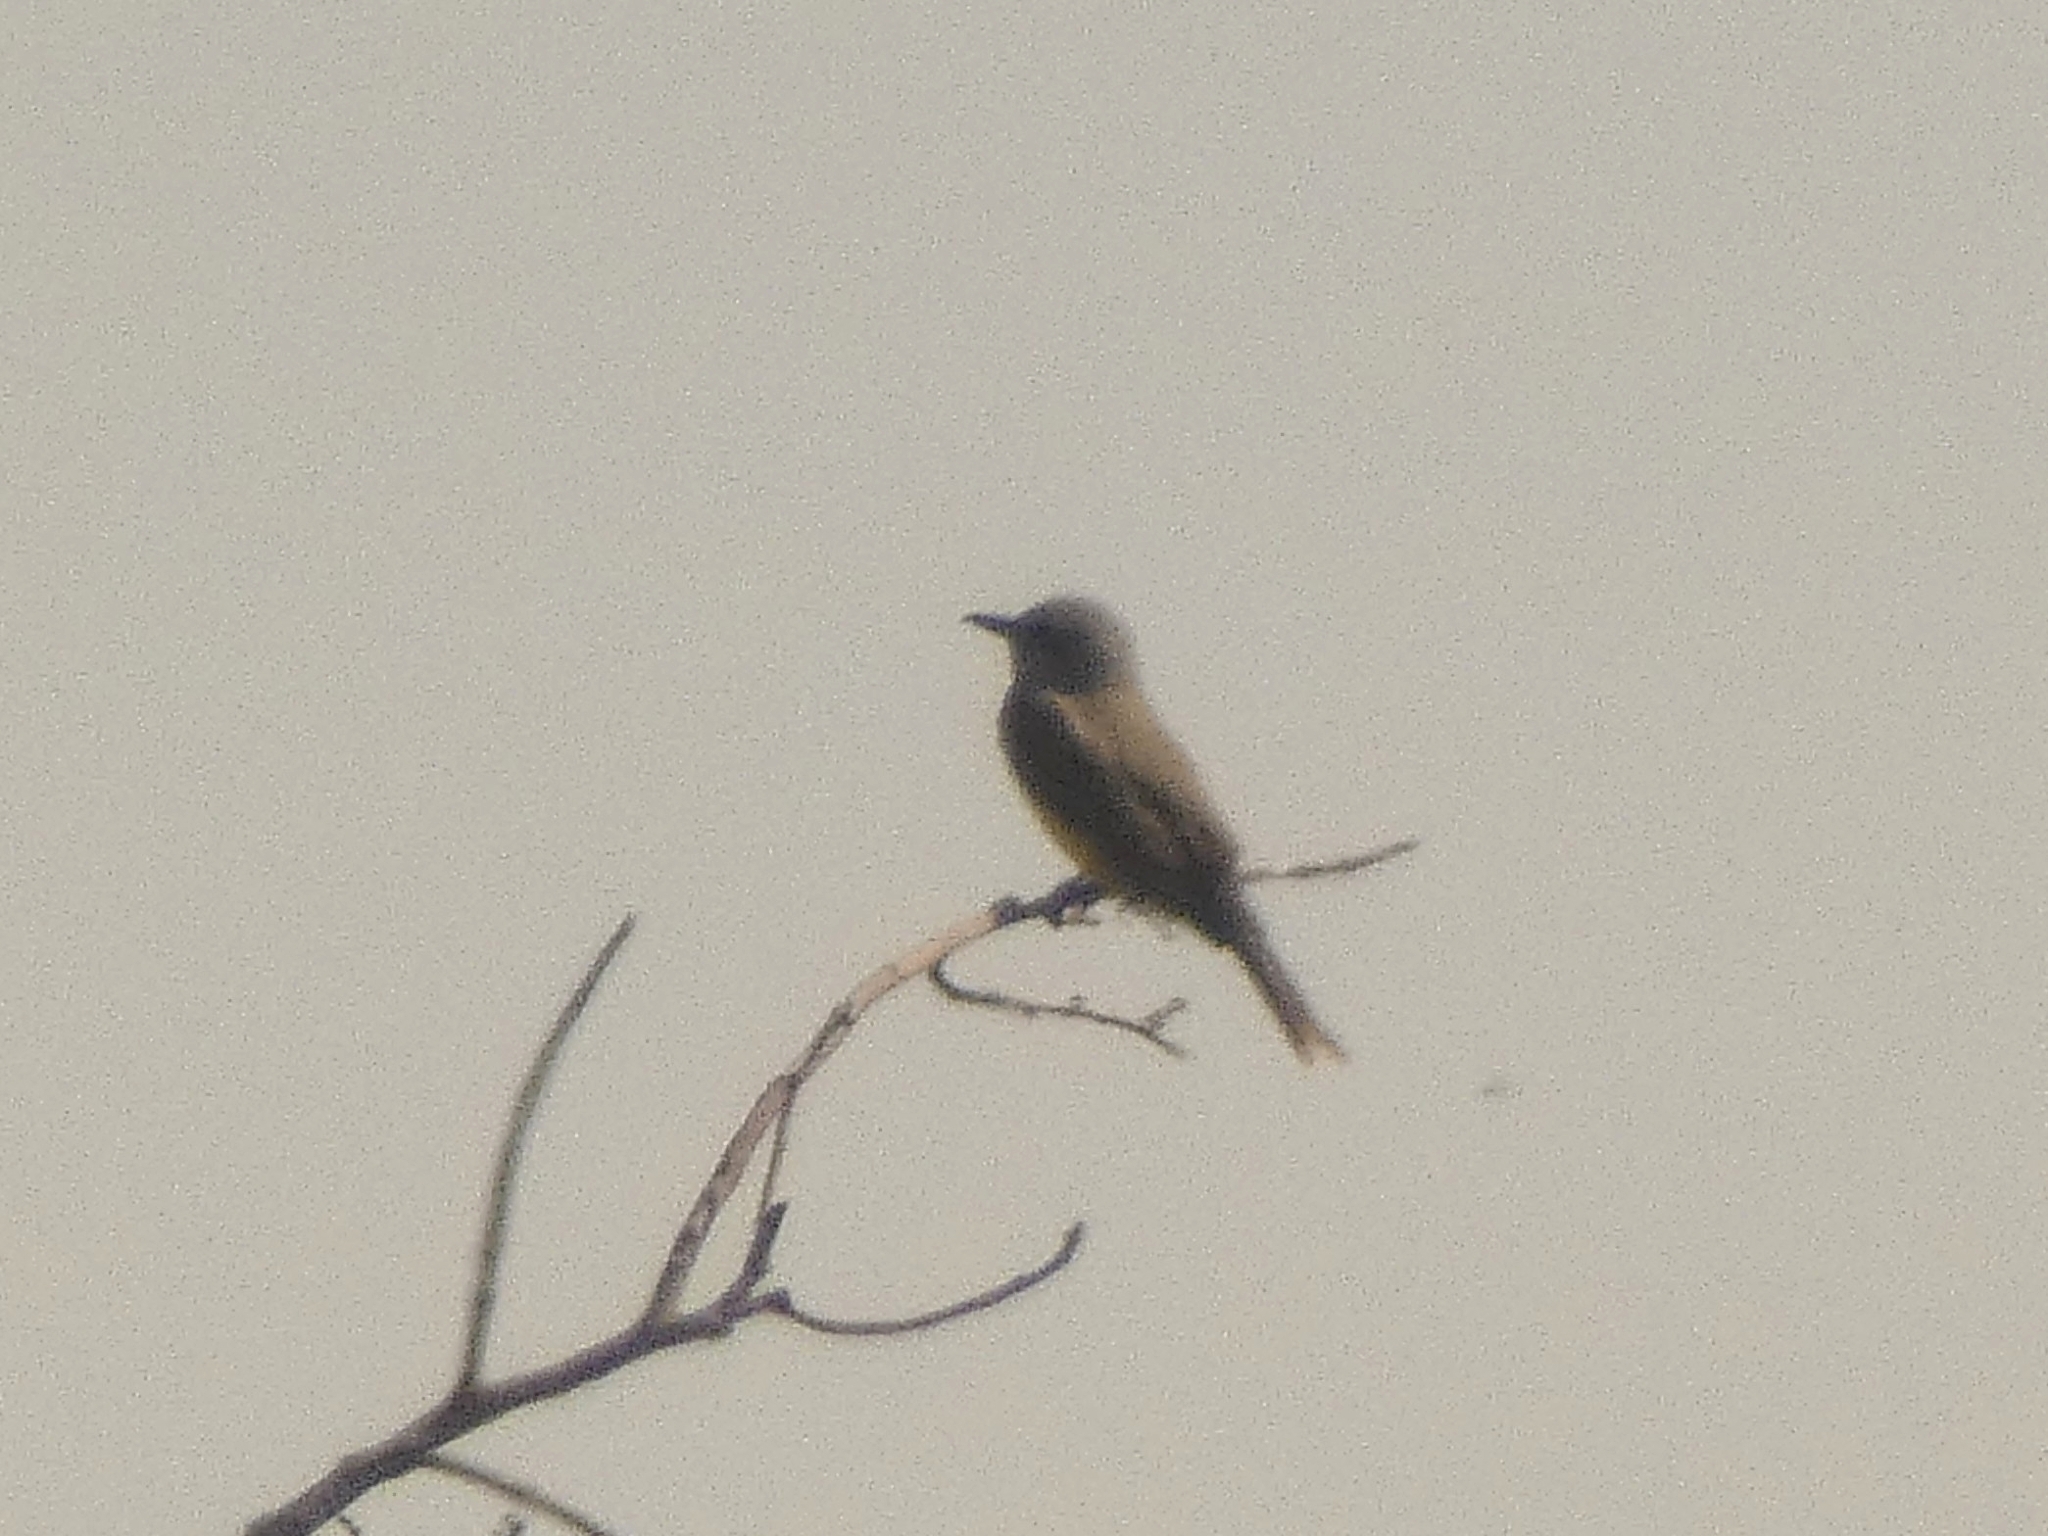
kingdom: Animalia
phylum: Chordata
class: Aves
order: Passeriformes
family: Tyrannidae
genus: Tyrannus
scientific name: Tyrannus melancholicus
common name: Tropical kingbird
